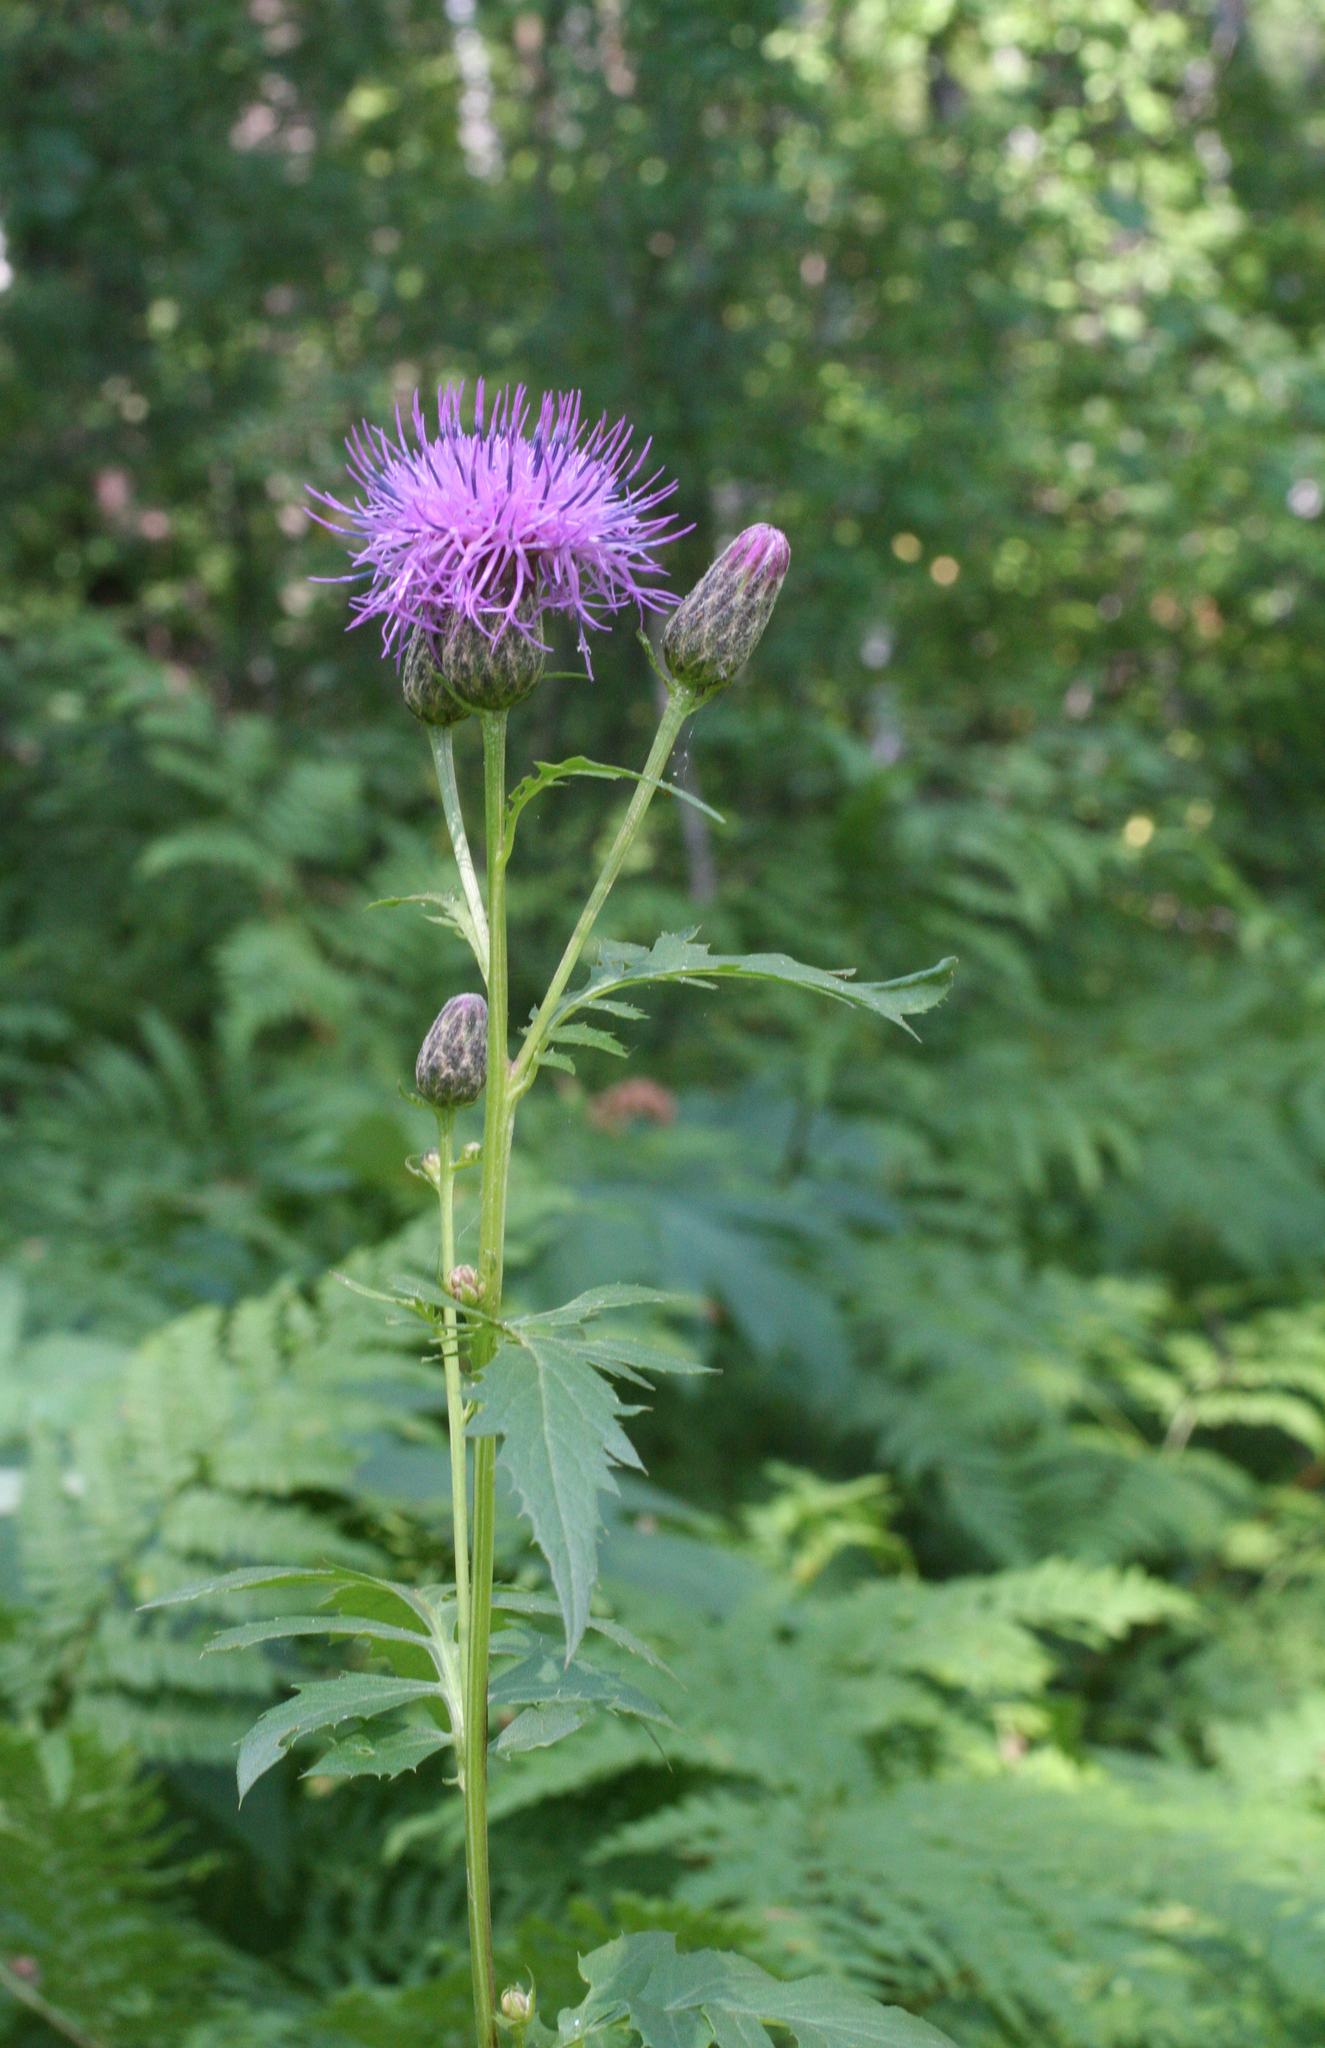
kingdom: Plantae
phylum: Tracheophyta
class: Magnoliopsida
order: Asterales
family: Asteraceae
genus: Serratula
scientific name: Serratula coronata
